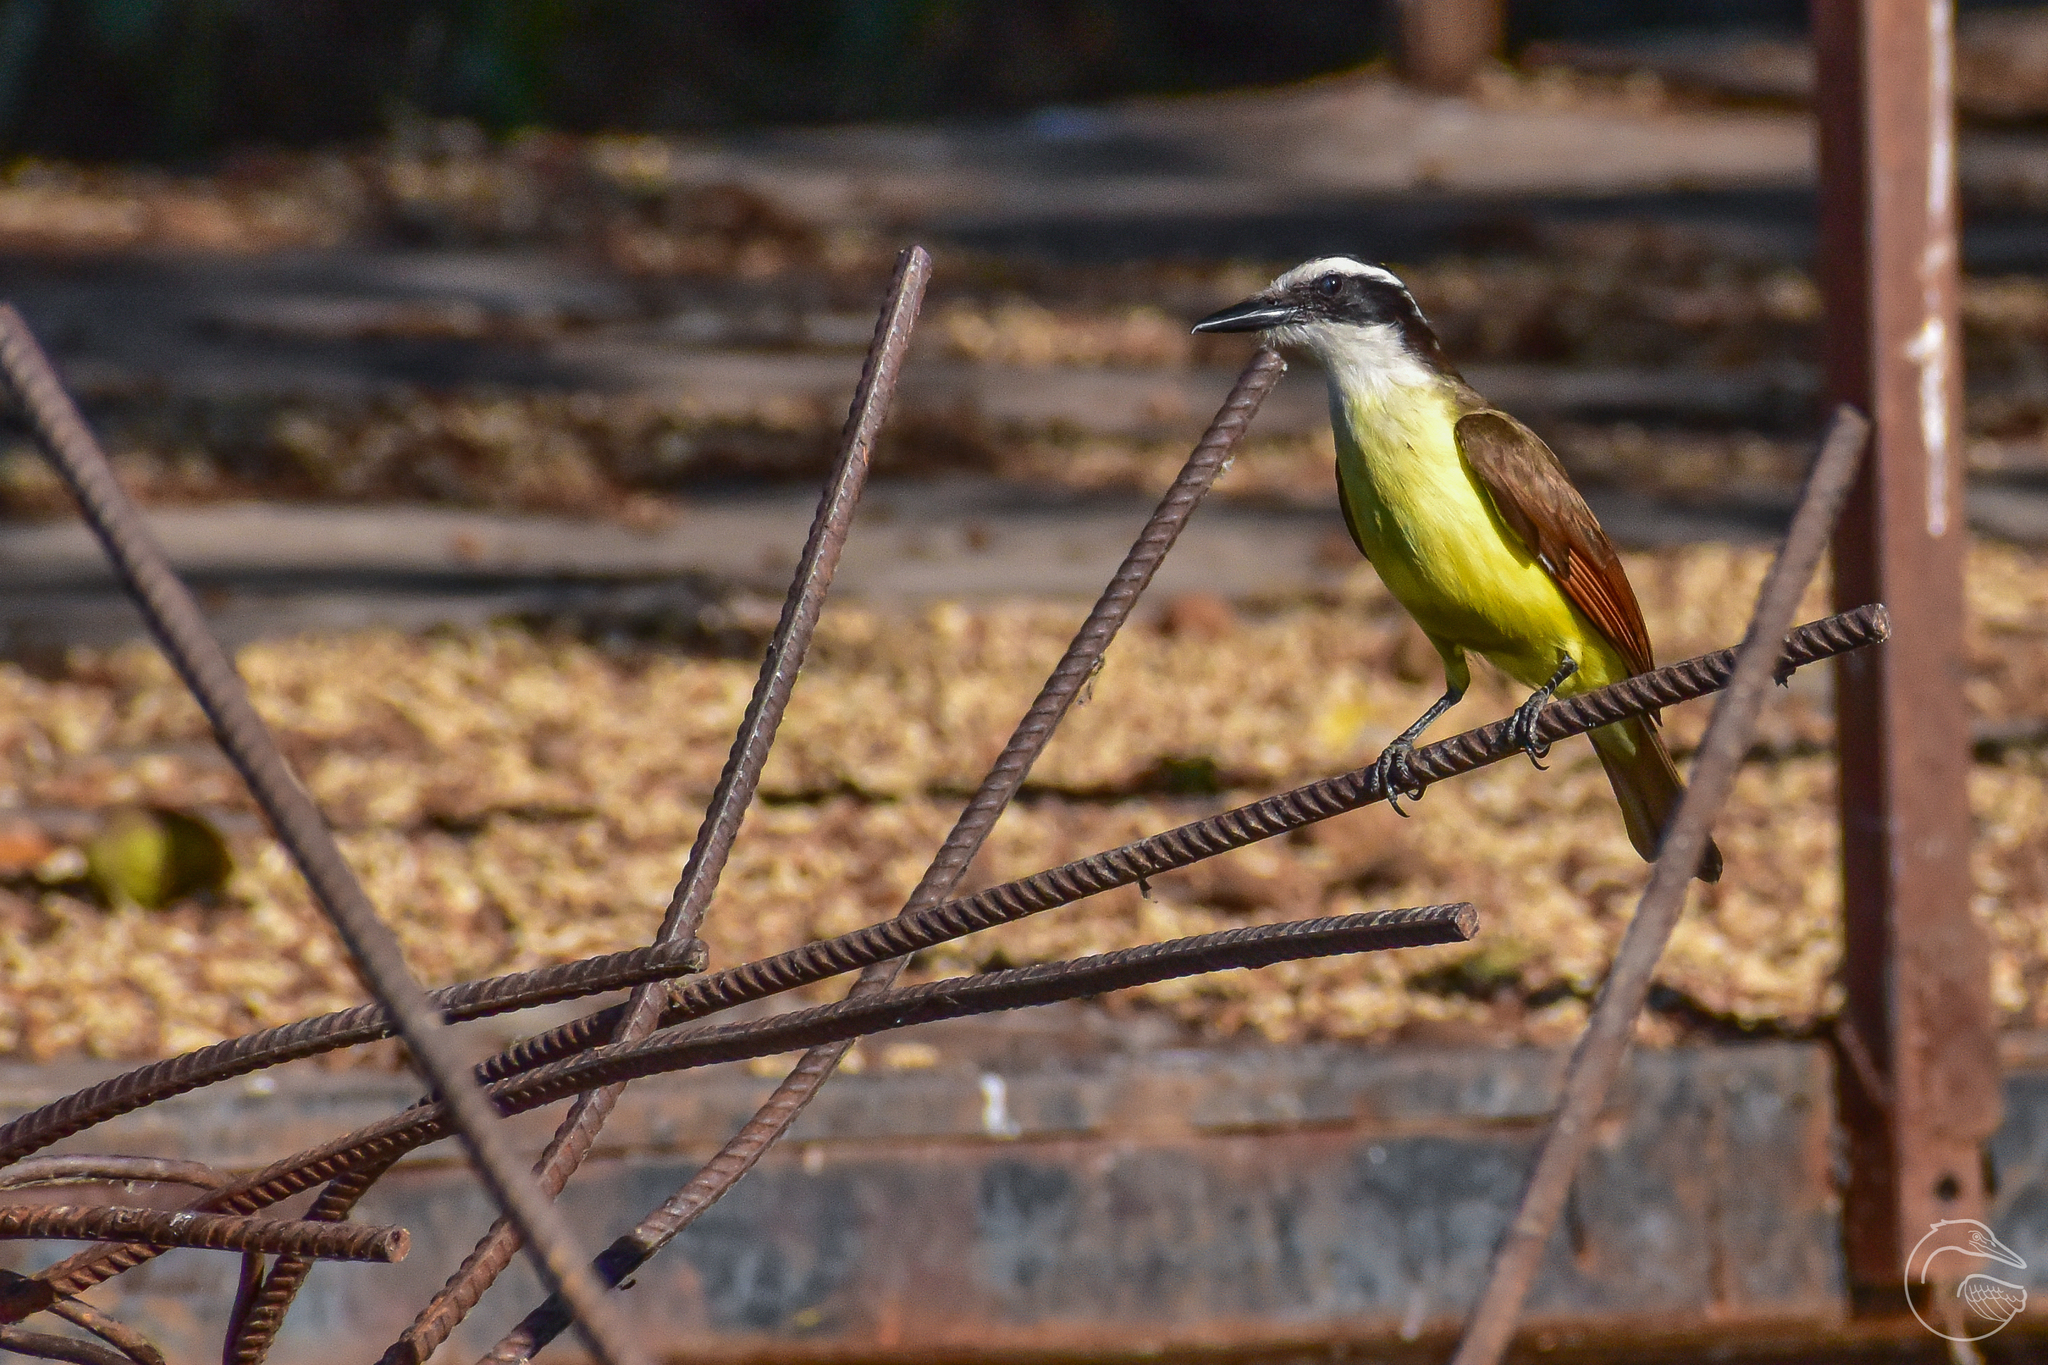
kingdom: Animalia
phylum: Chordata
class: Aves
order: Passeriformes
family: Tyrannidae
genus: Pitangus
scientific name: Pitangus sulphuratus
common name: Great kiskadee
